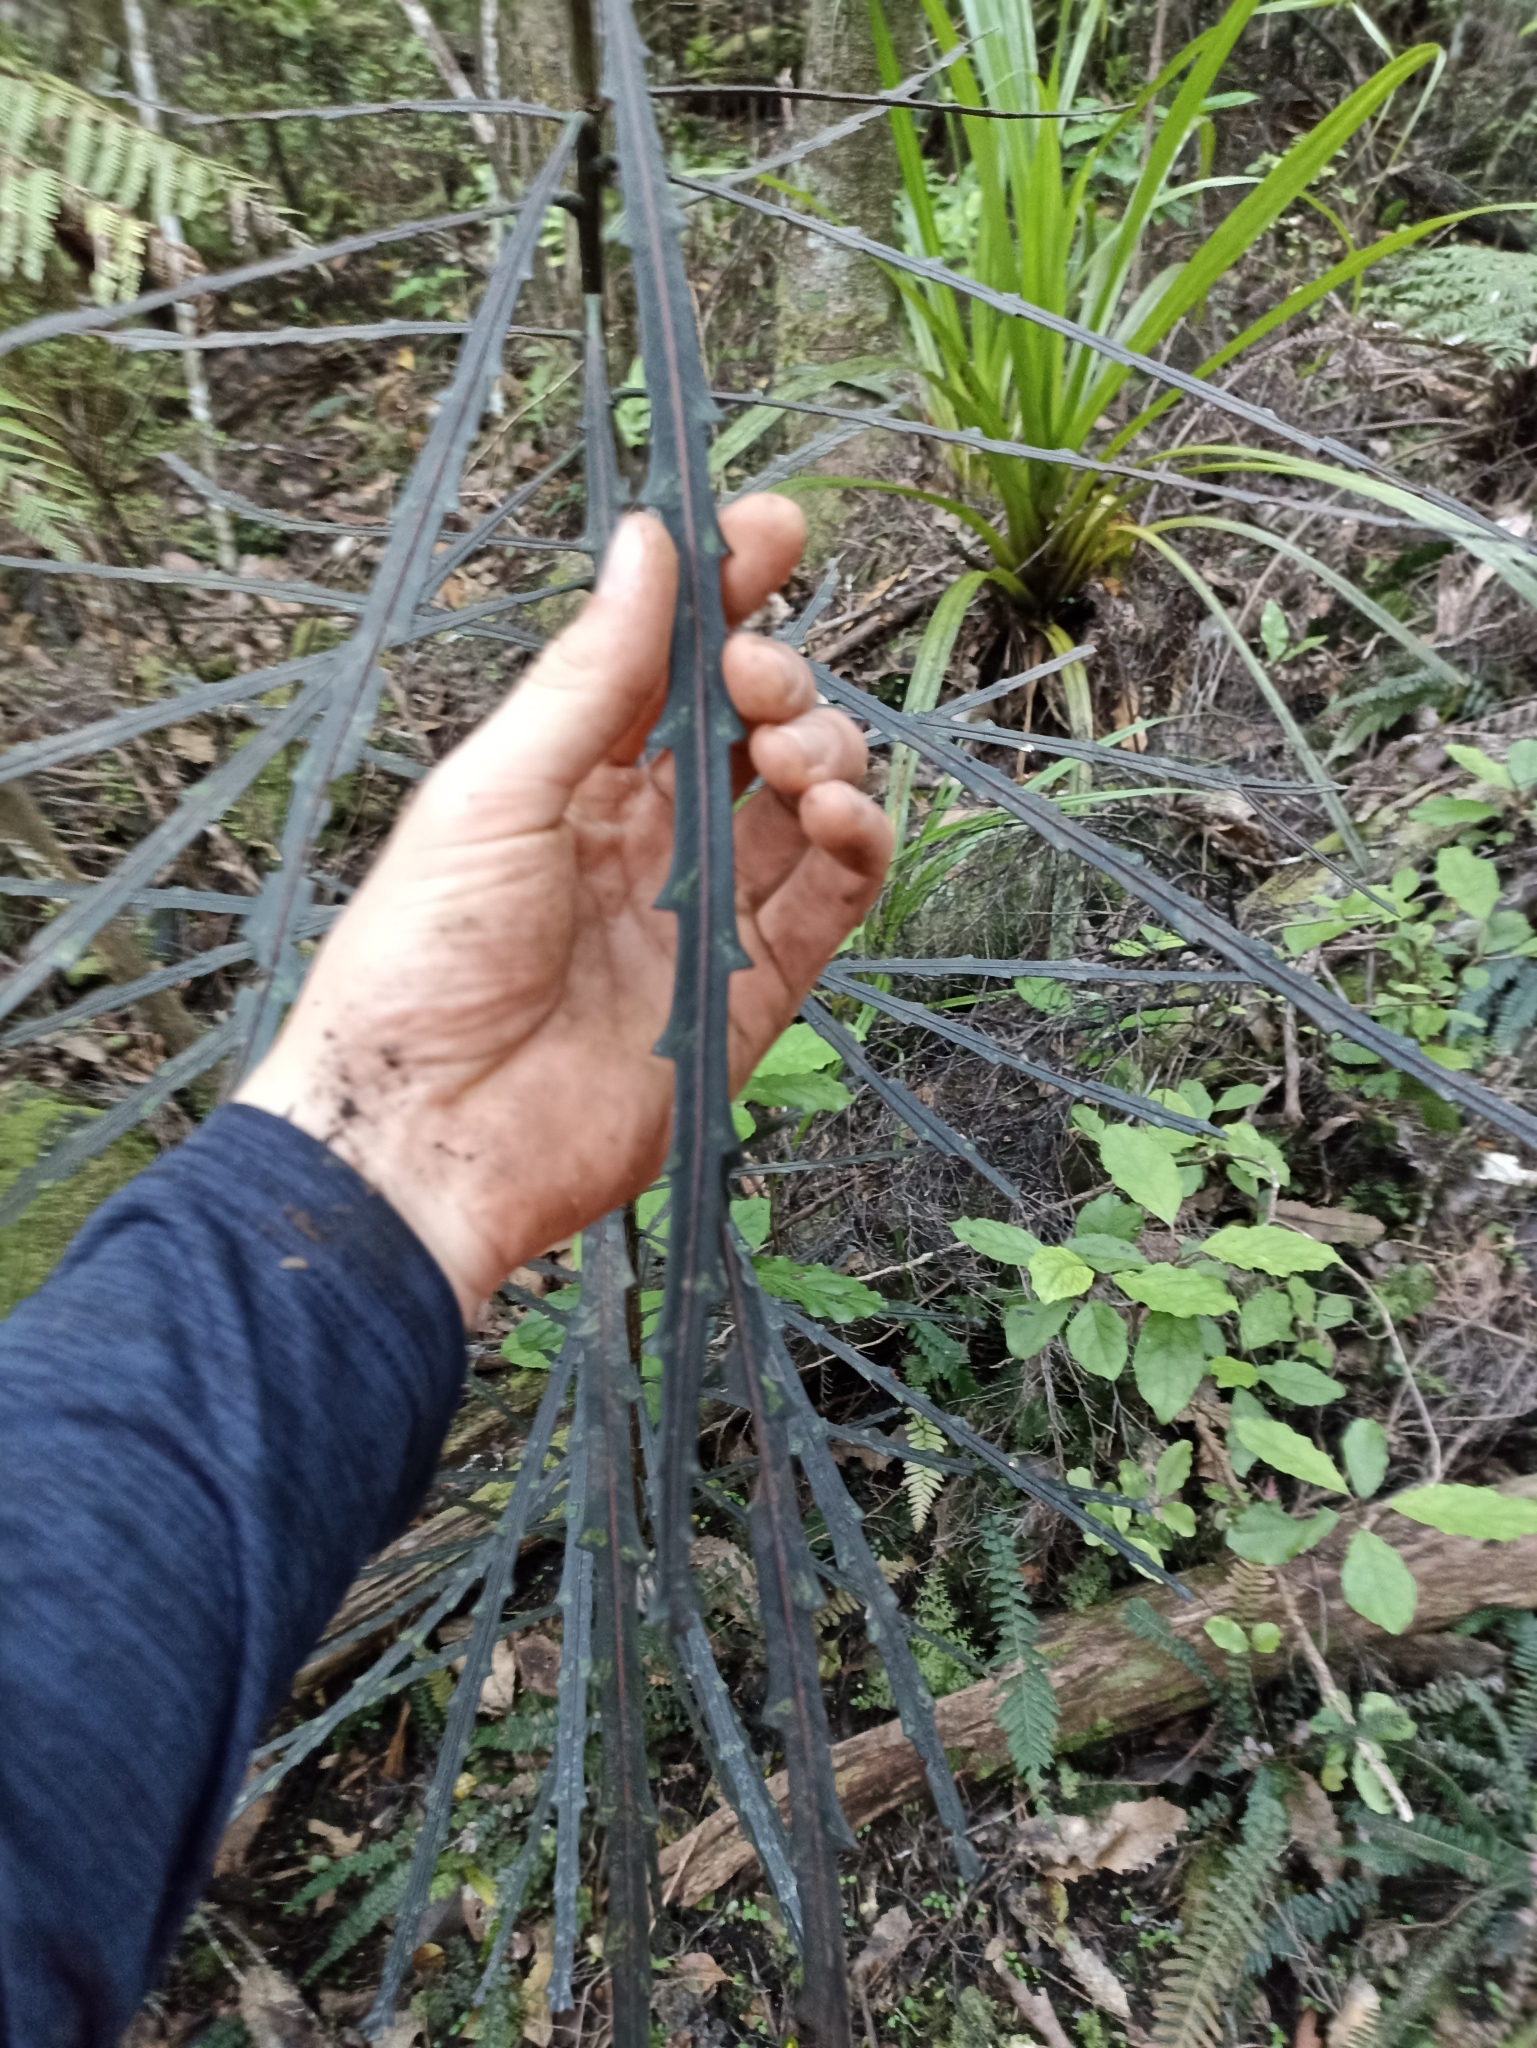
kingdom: Plantae
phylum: Tracheophyta
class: Magnoliopsida
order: Apiales
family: Araliaceae
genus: Pseudopanax
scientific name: Pseudopanax crassifolius
